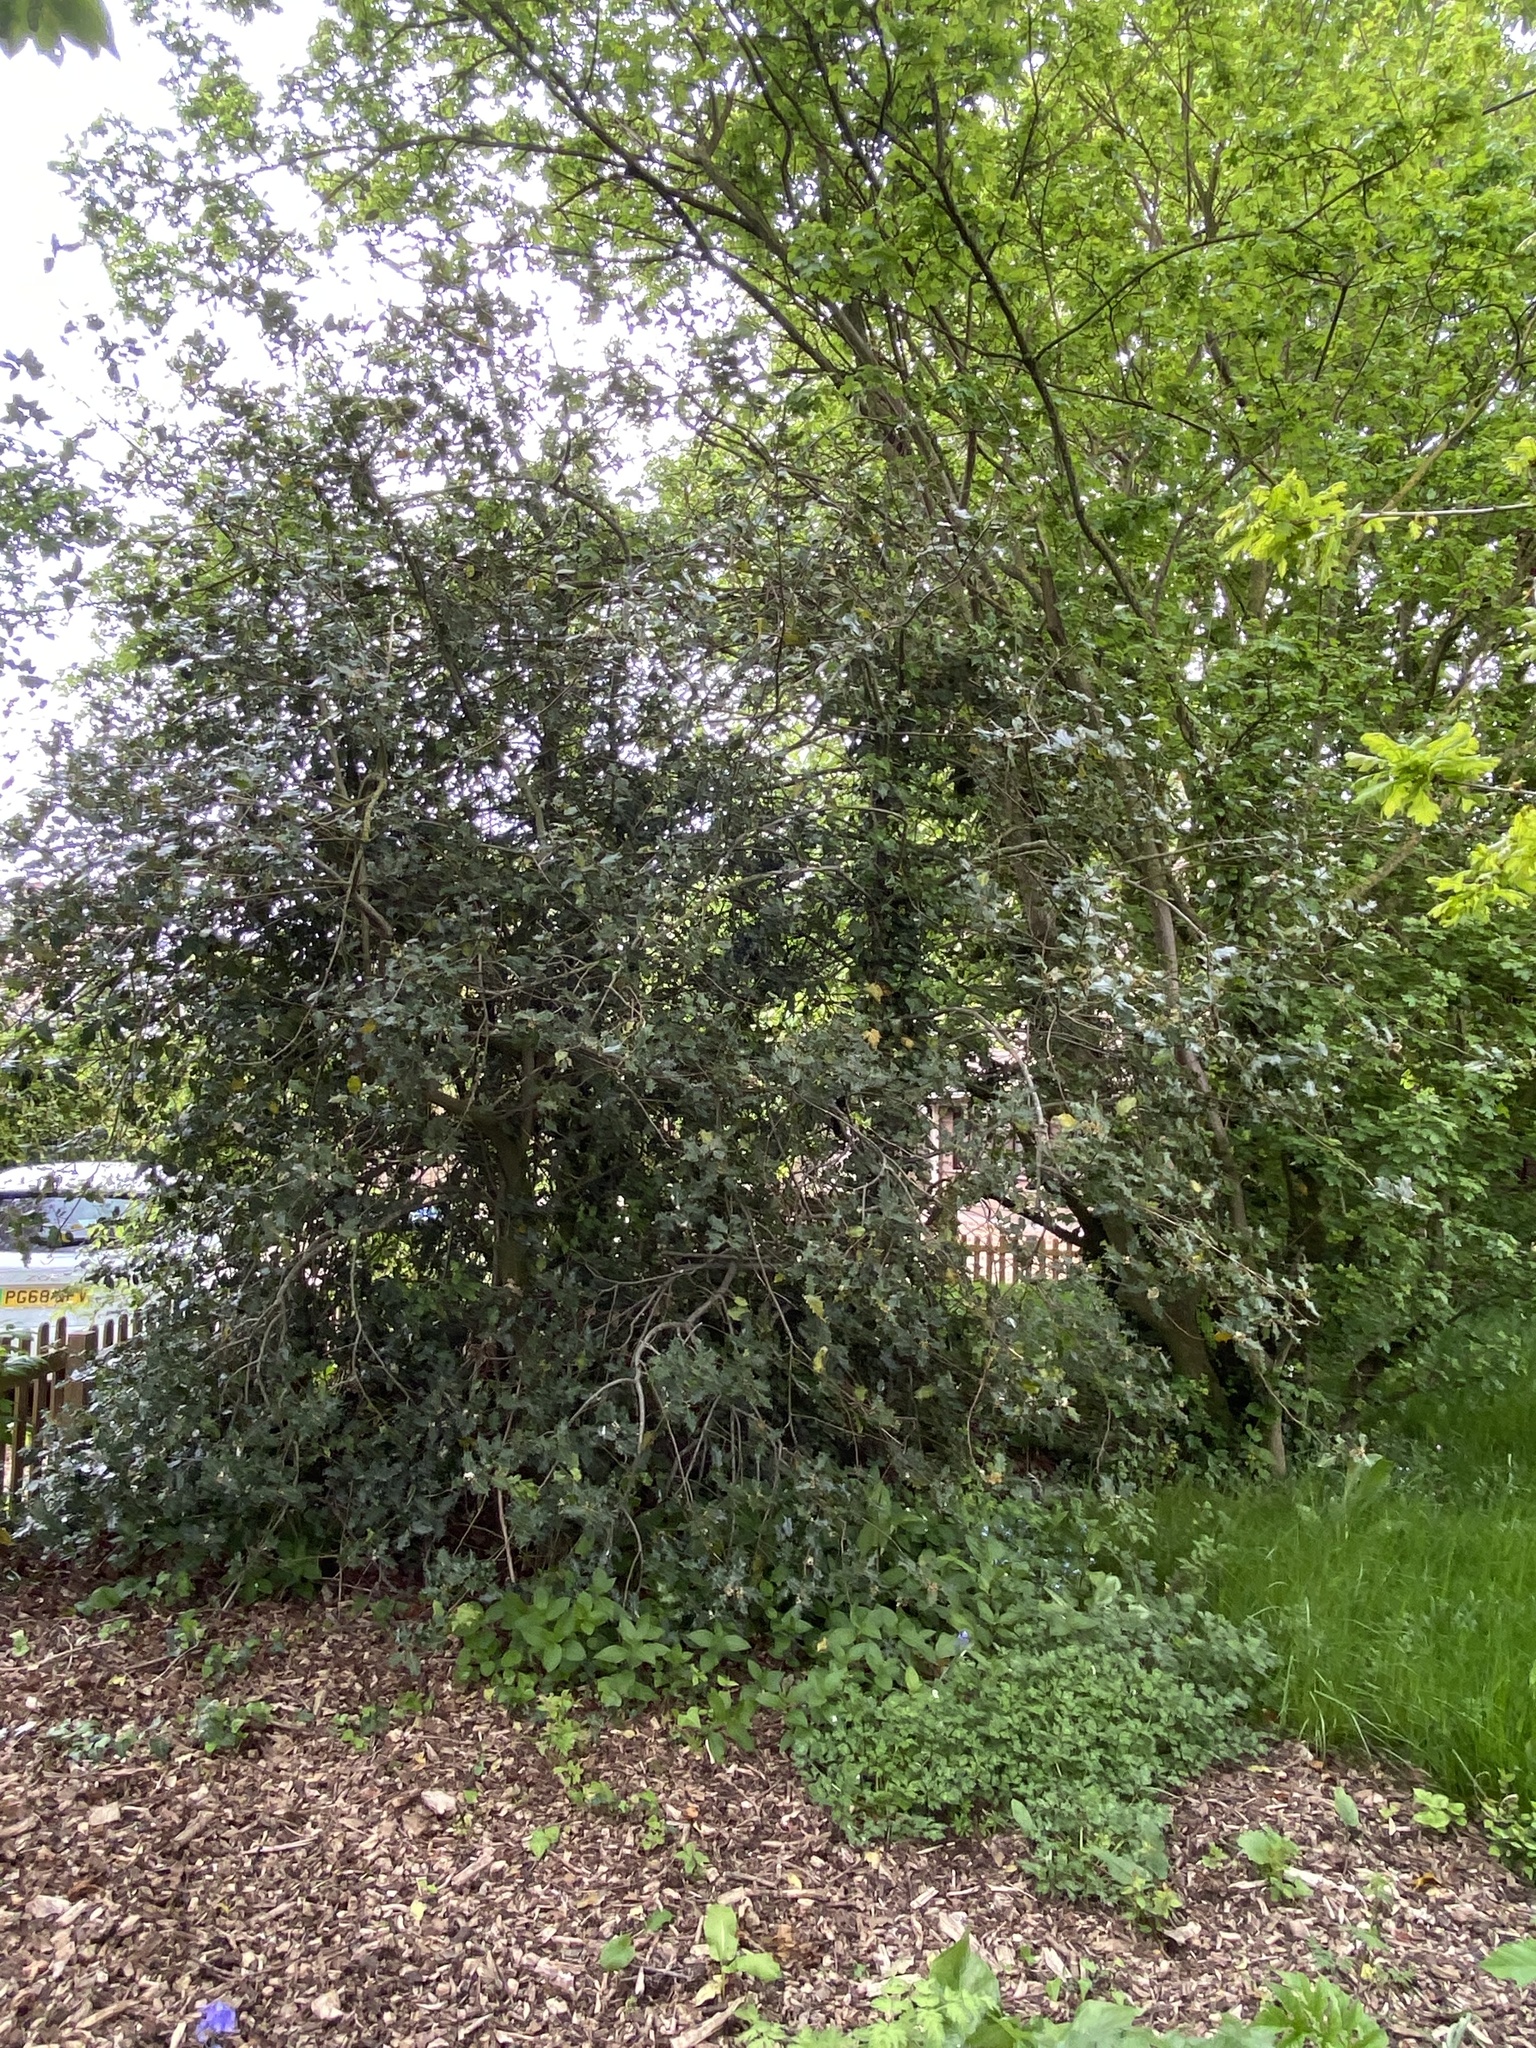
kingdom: Plantae
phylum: Tracheophyta
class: Magnoliopsida
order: Aquifoliales
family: Aquifoliaceae
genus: Ilex
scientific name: Ilex aquifolium
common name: English holly
